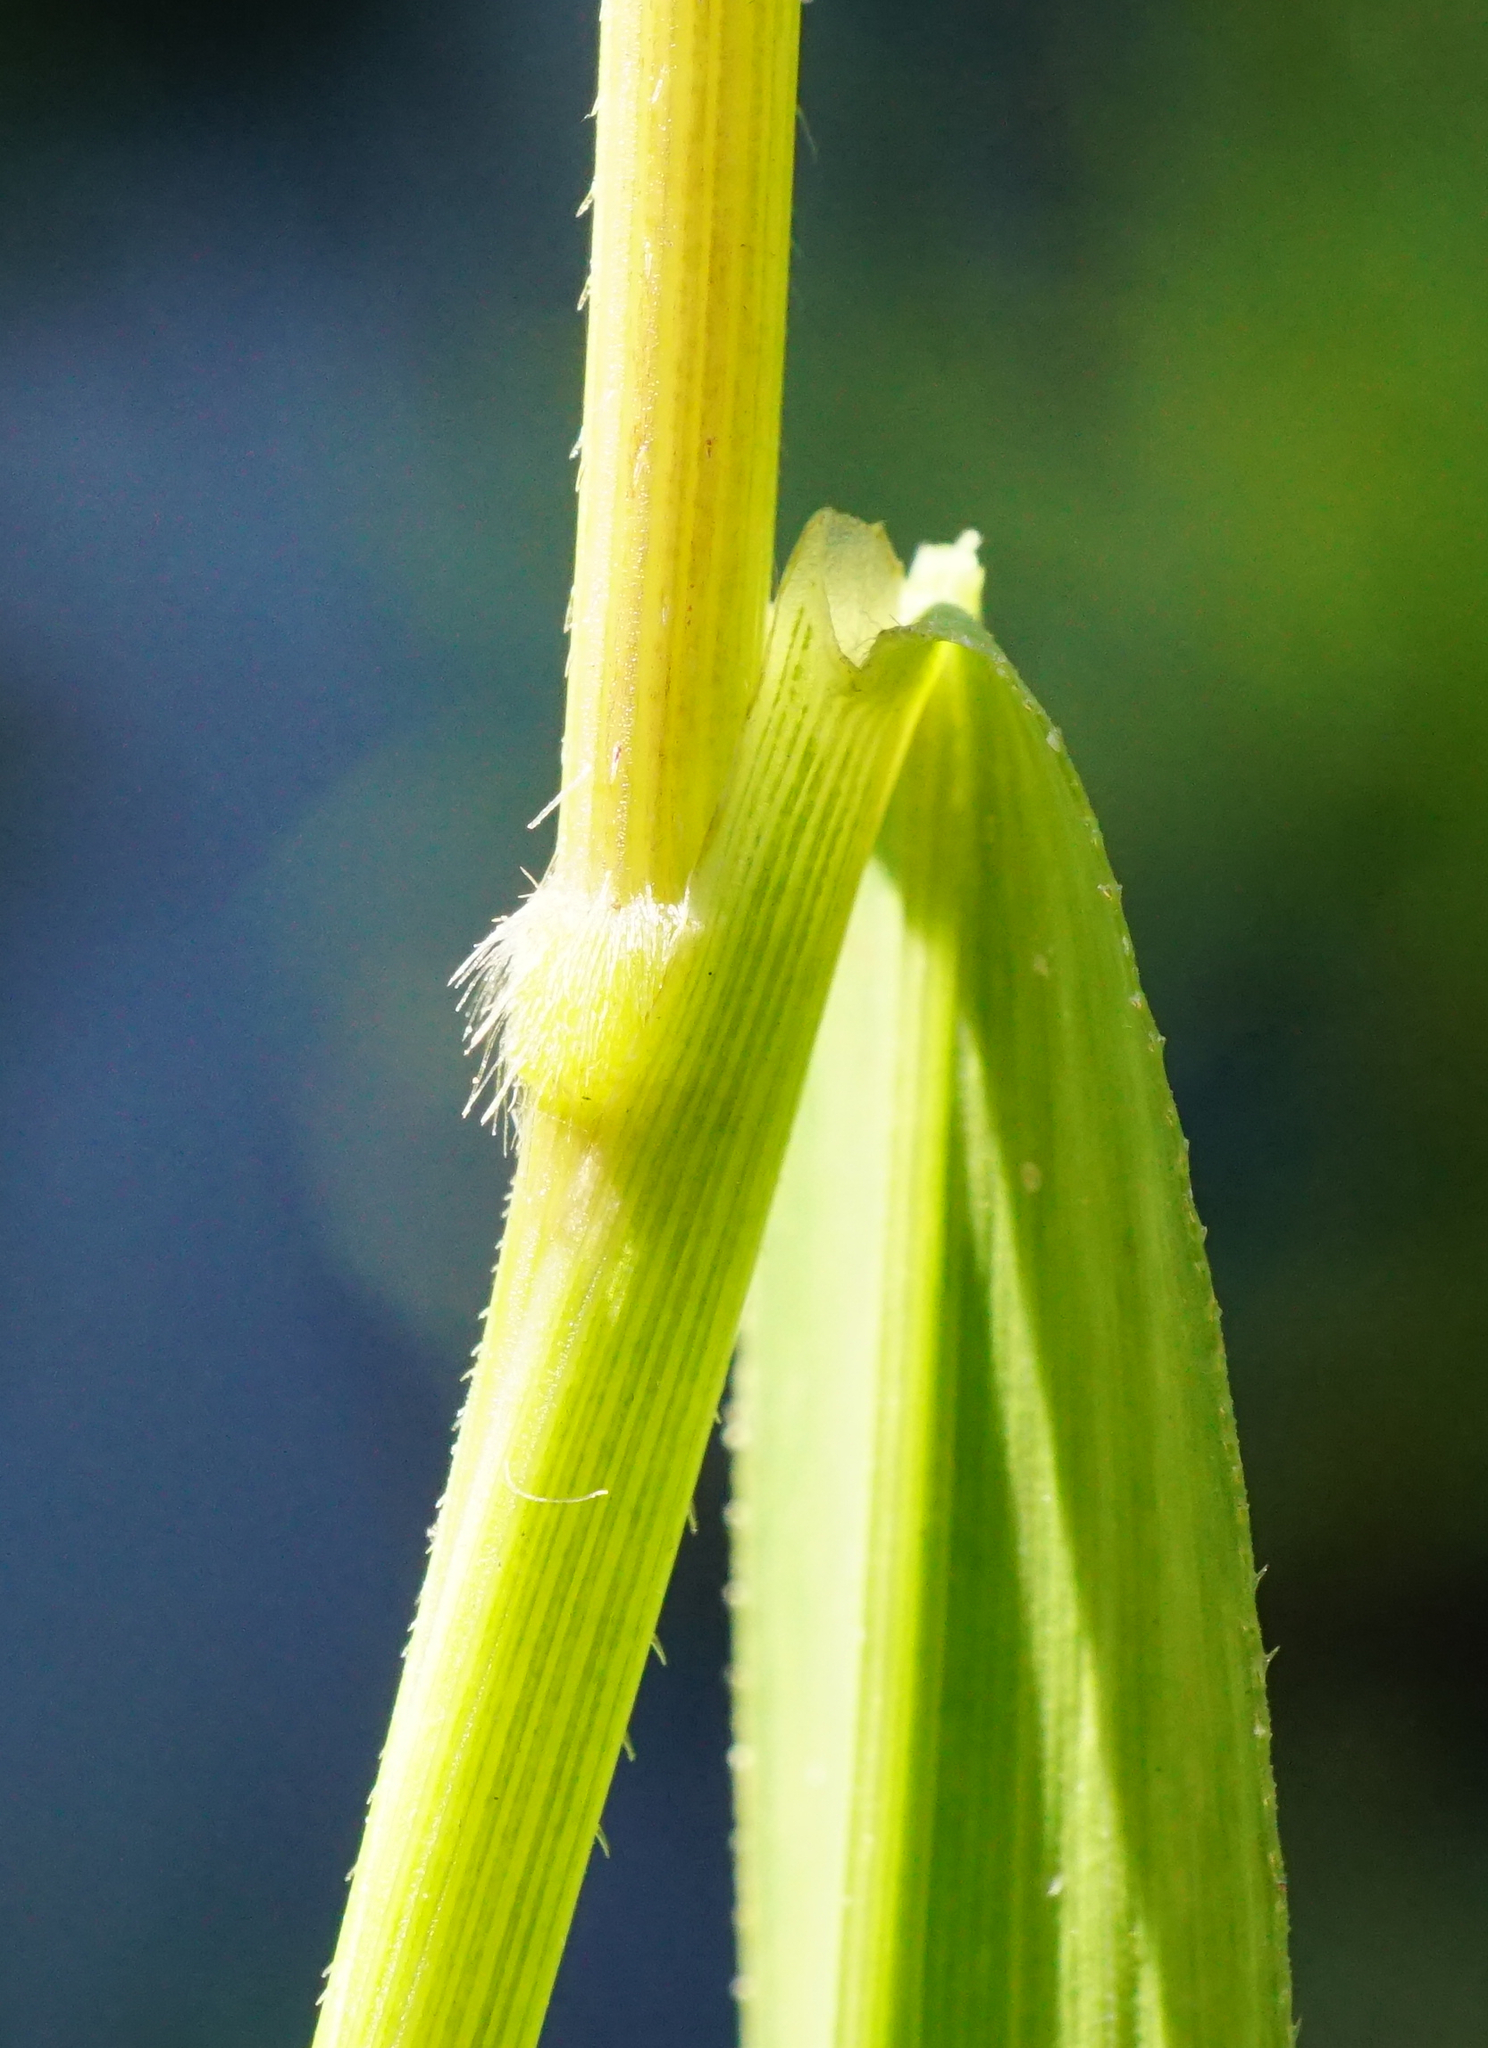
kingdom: Plantae
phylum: Tracheophyta
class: Liliopsida
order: Poales
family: Poaceae
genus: Leersia
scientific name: Leersia oryzoides
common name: Cut-grass
